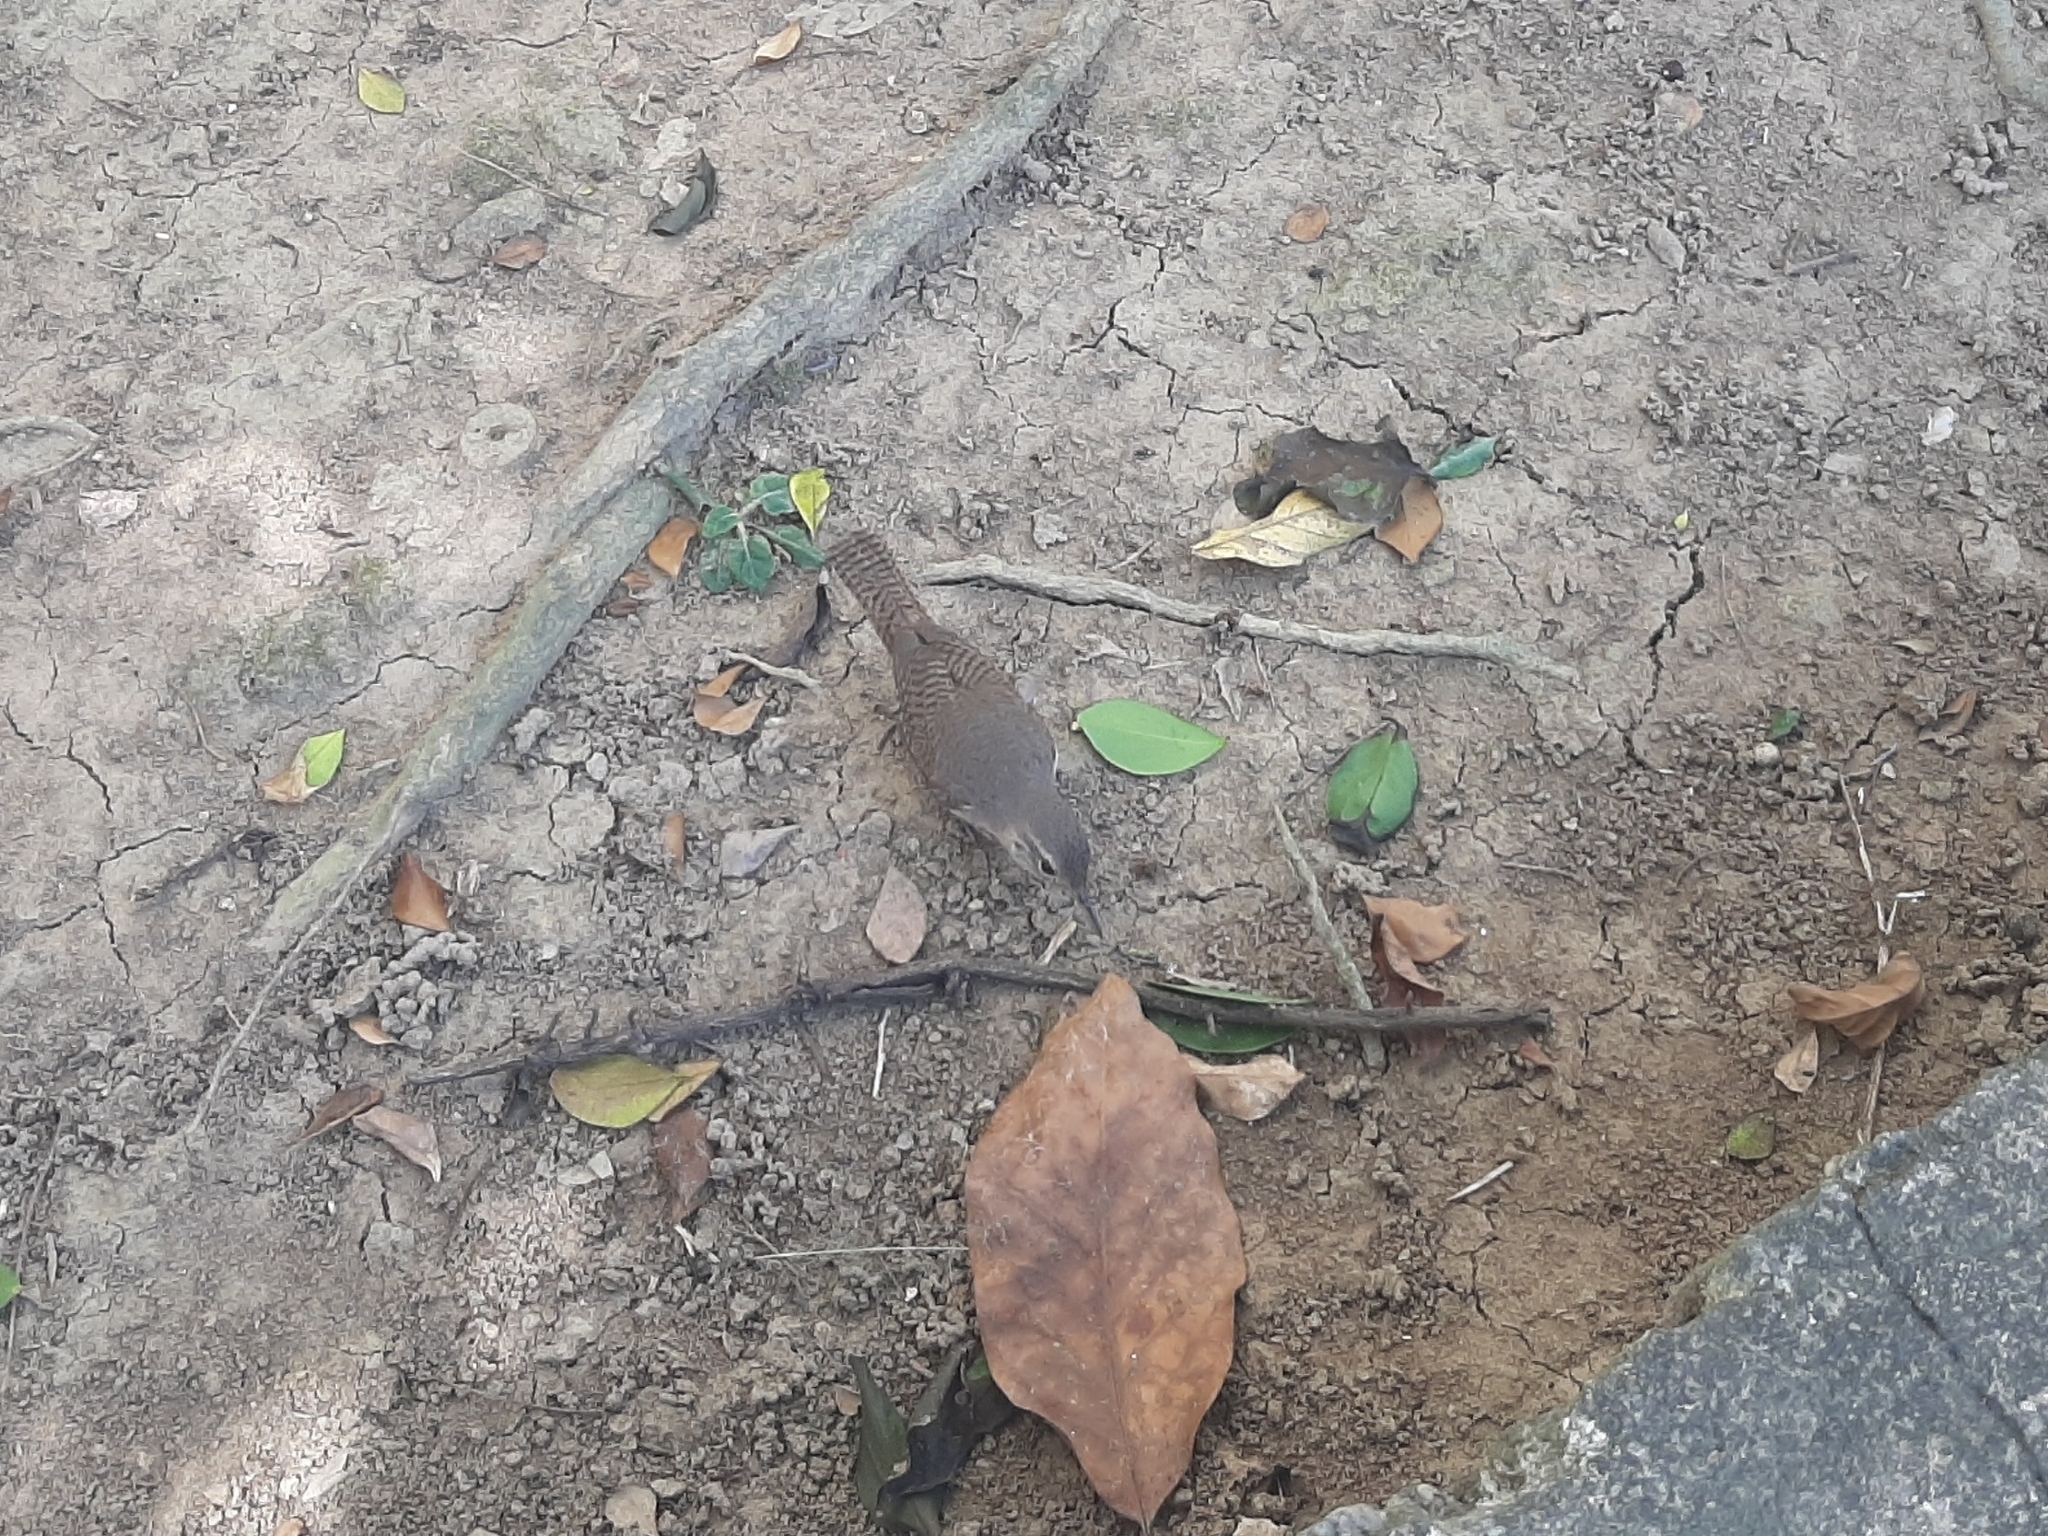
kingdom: Animalia
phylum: Chordata
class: Aves
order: Passeriformes
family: Troglodytidae
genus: Troglodytes
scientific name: Troglodytes aedon
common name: House wren
